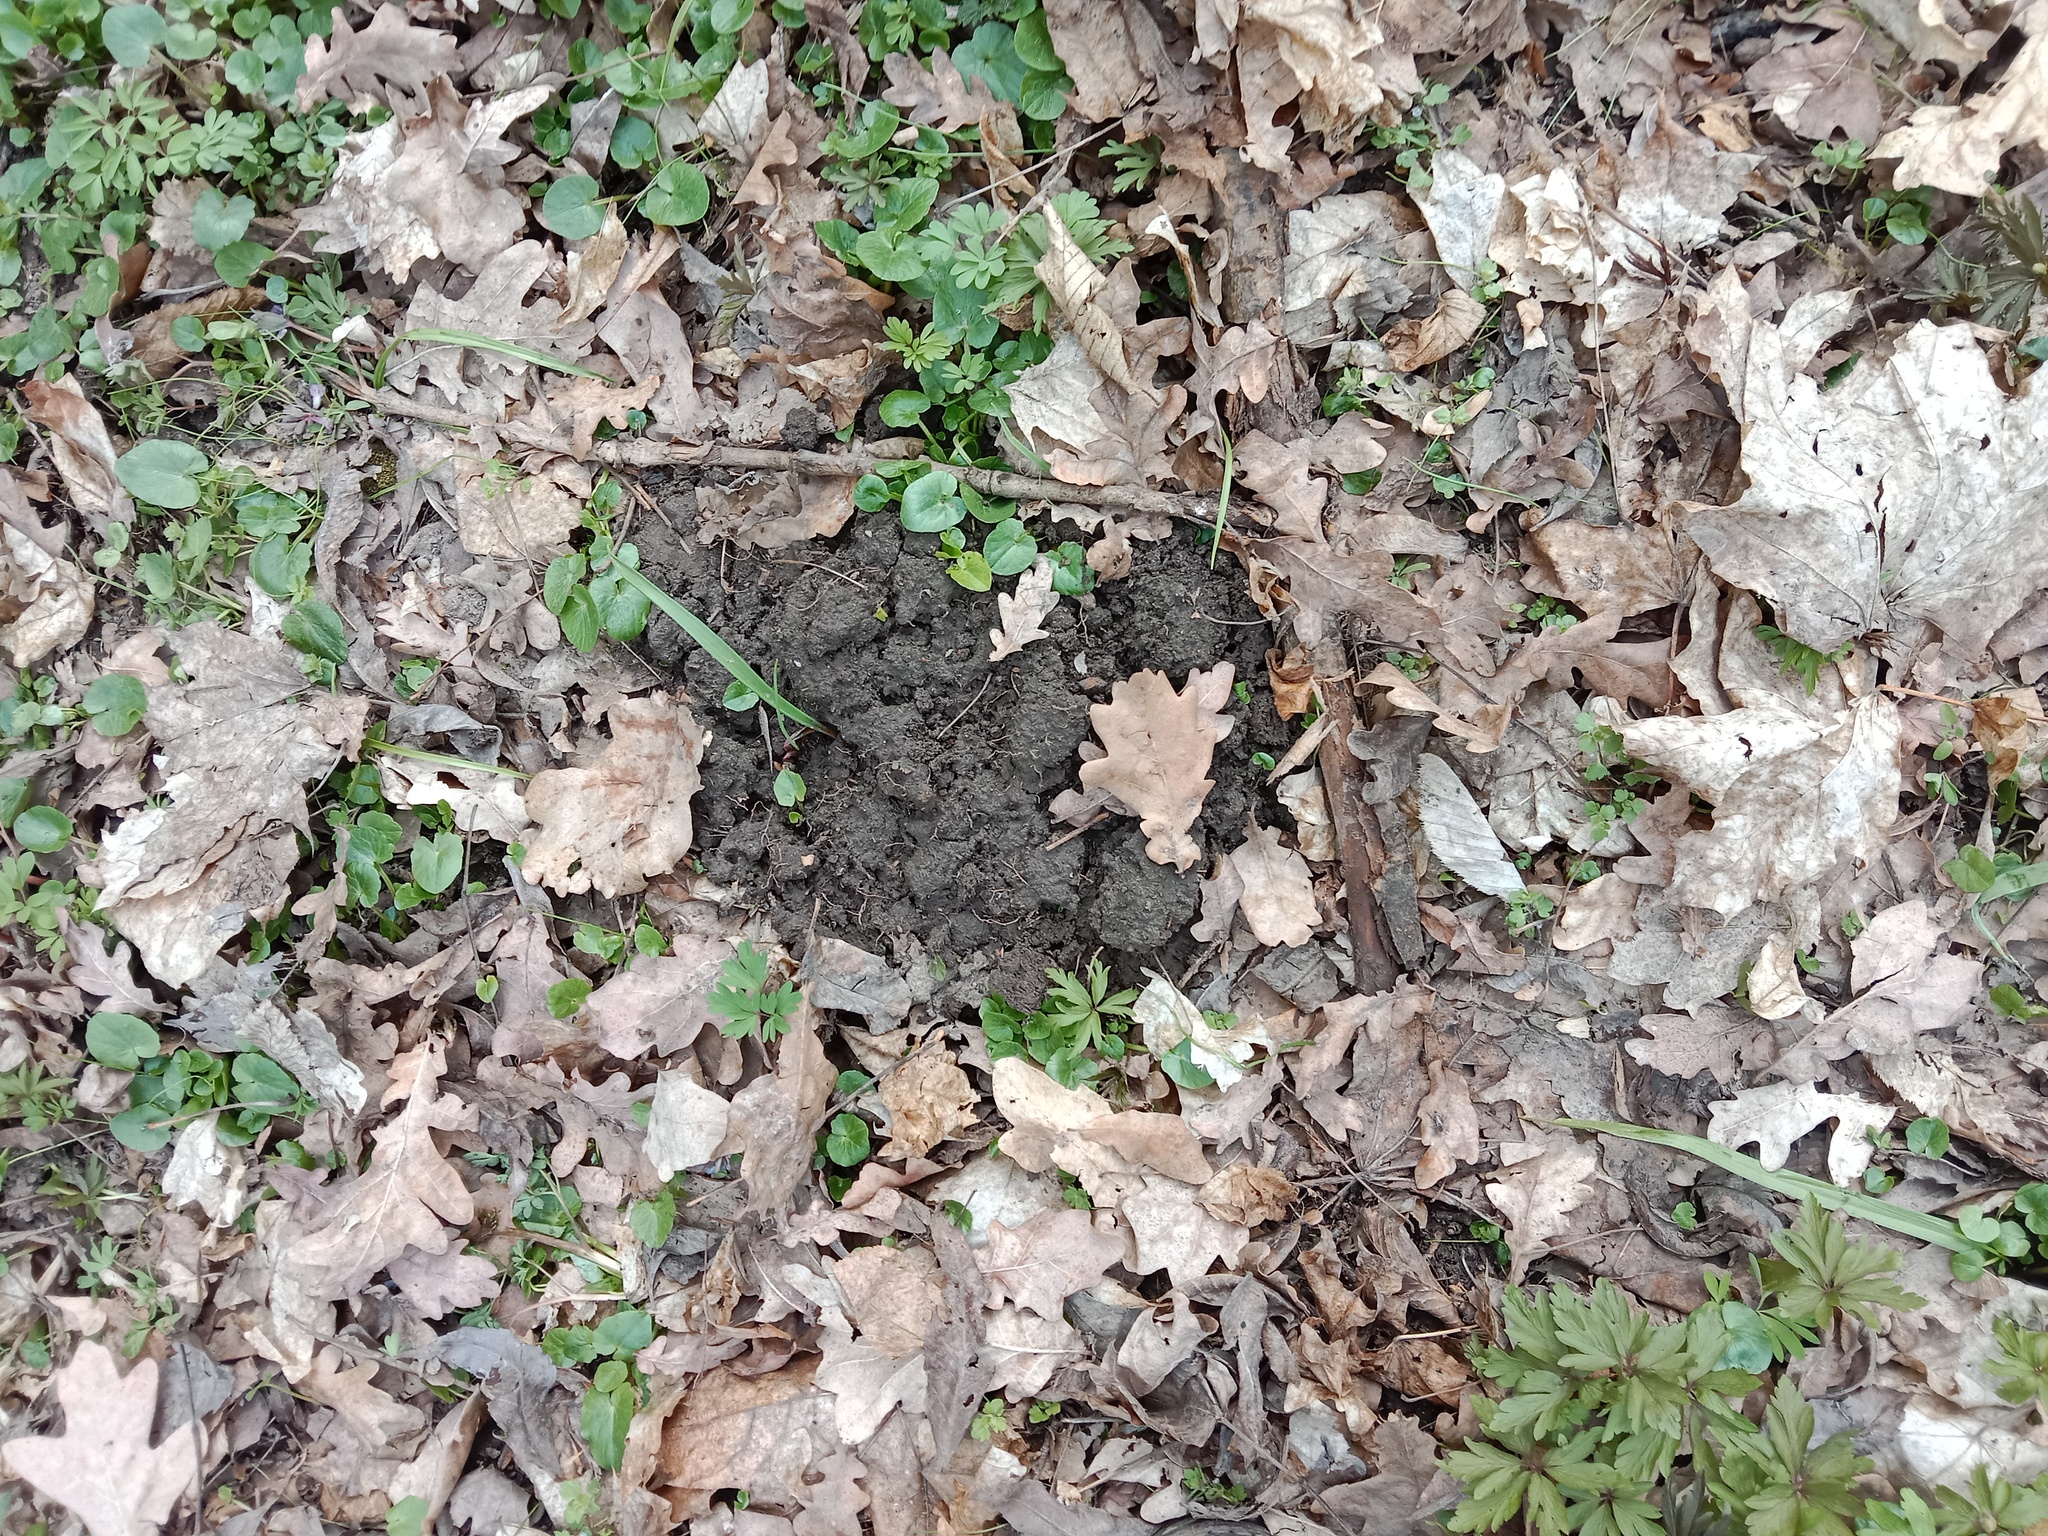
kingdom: Animalia
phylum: Chordata
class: Mammalia
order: Soricomorpha
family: Talpidae
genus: Talpa
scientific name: Talpa europaea
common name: European mole
